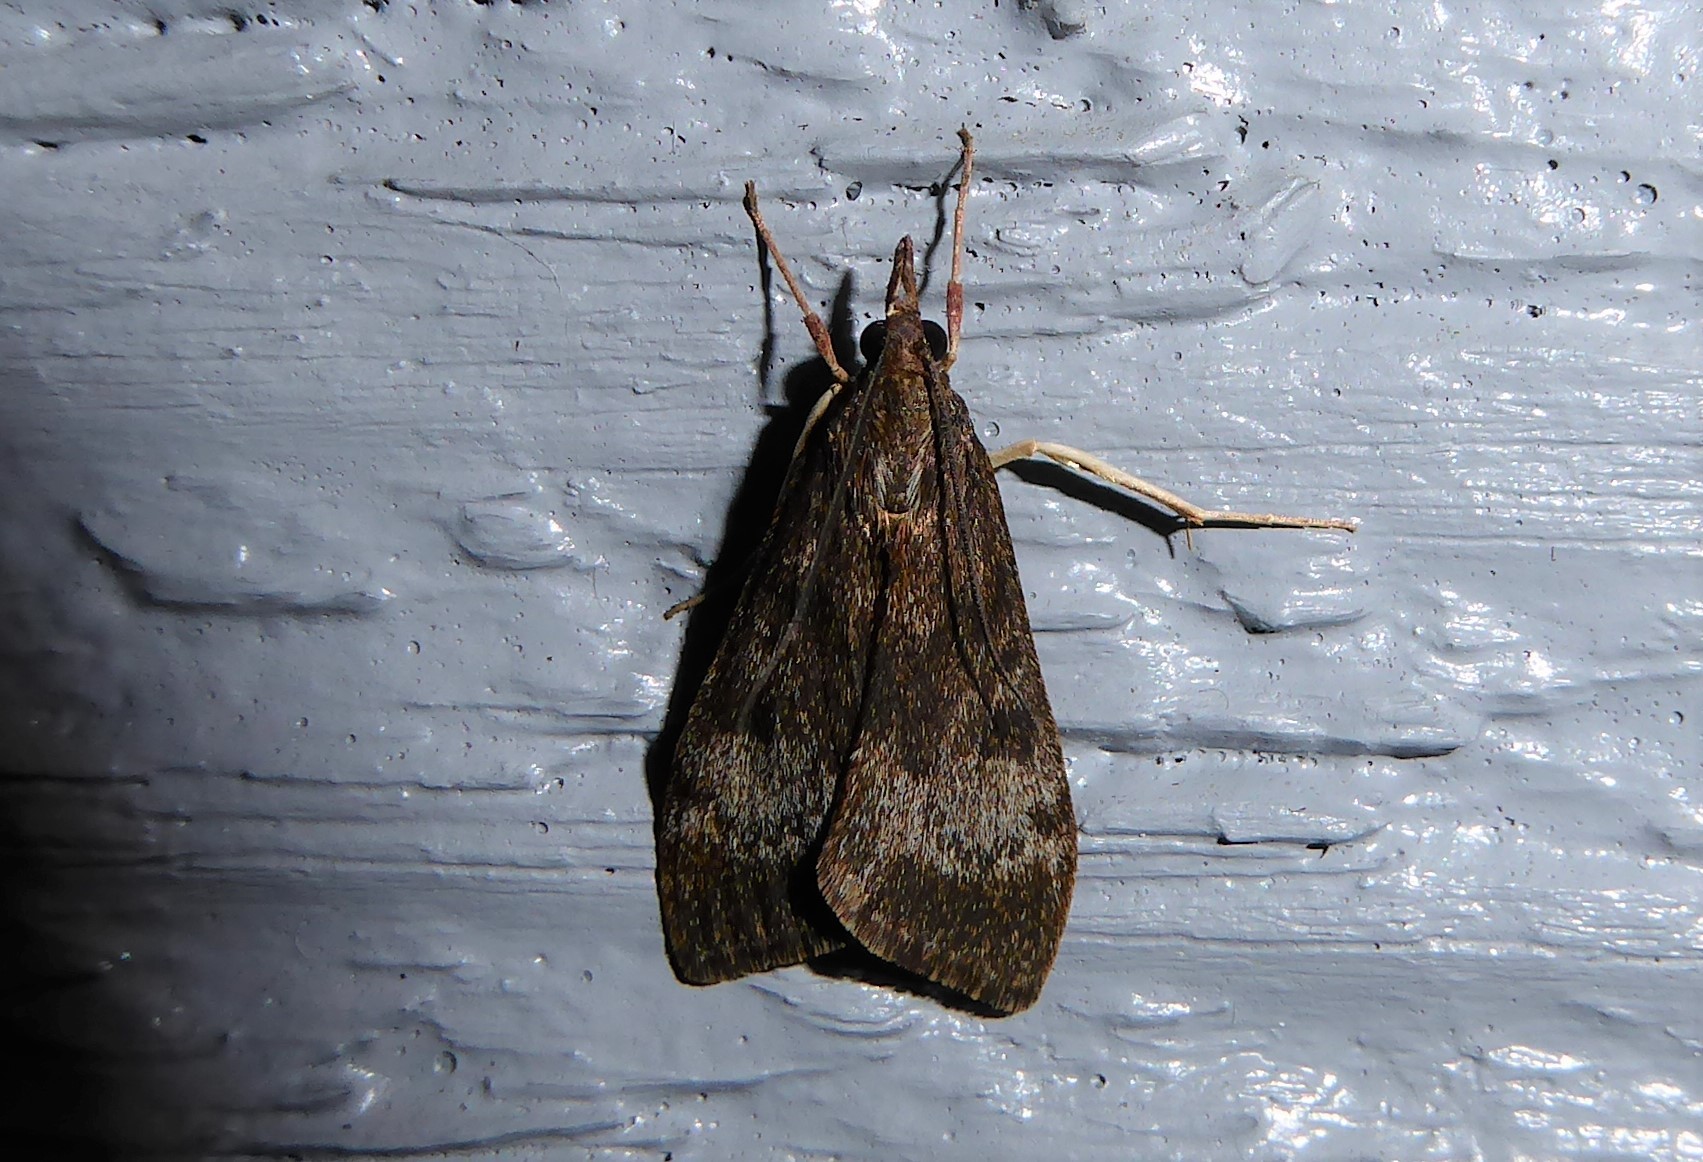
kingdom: Animalia
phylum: Arthropoda
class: Insecta
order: Lepidoptera
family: Crambidae
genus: Uresiphita
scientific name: Uresiphita
